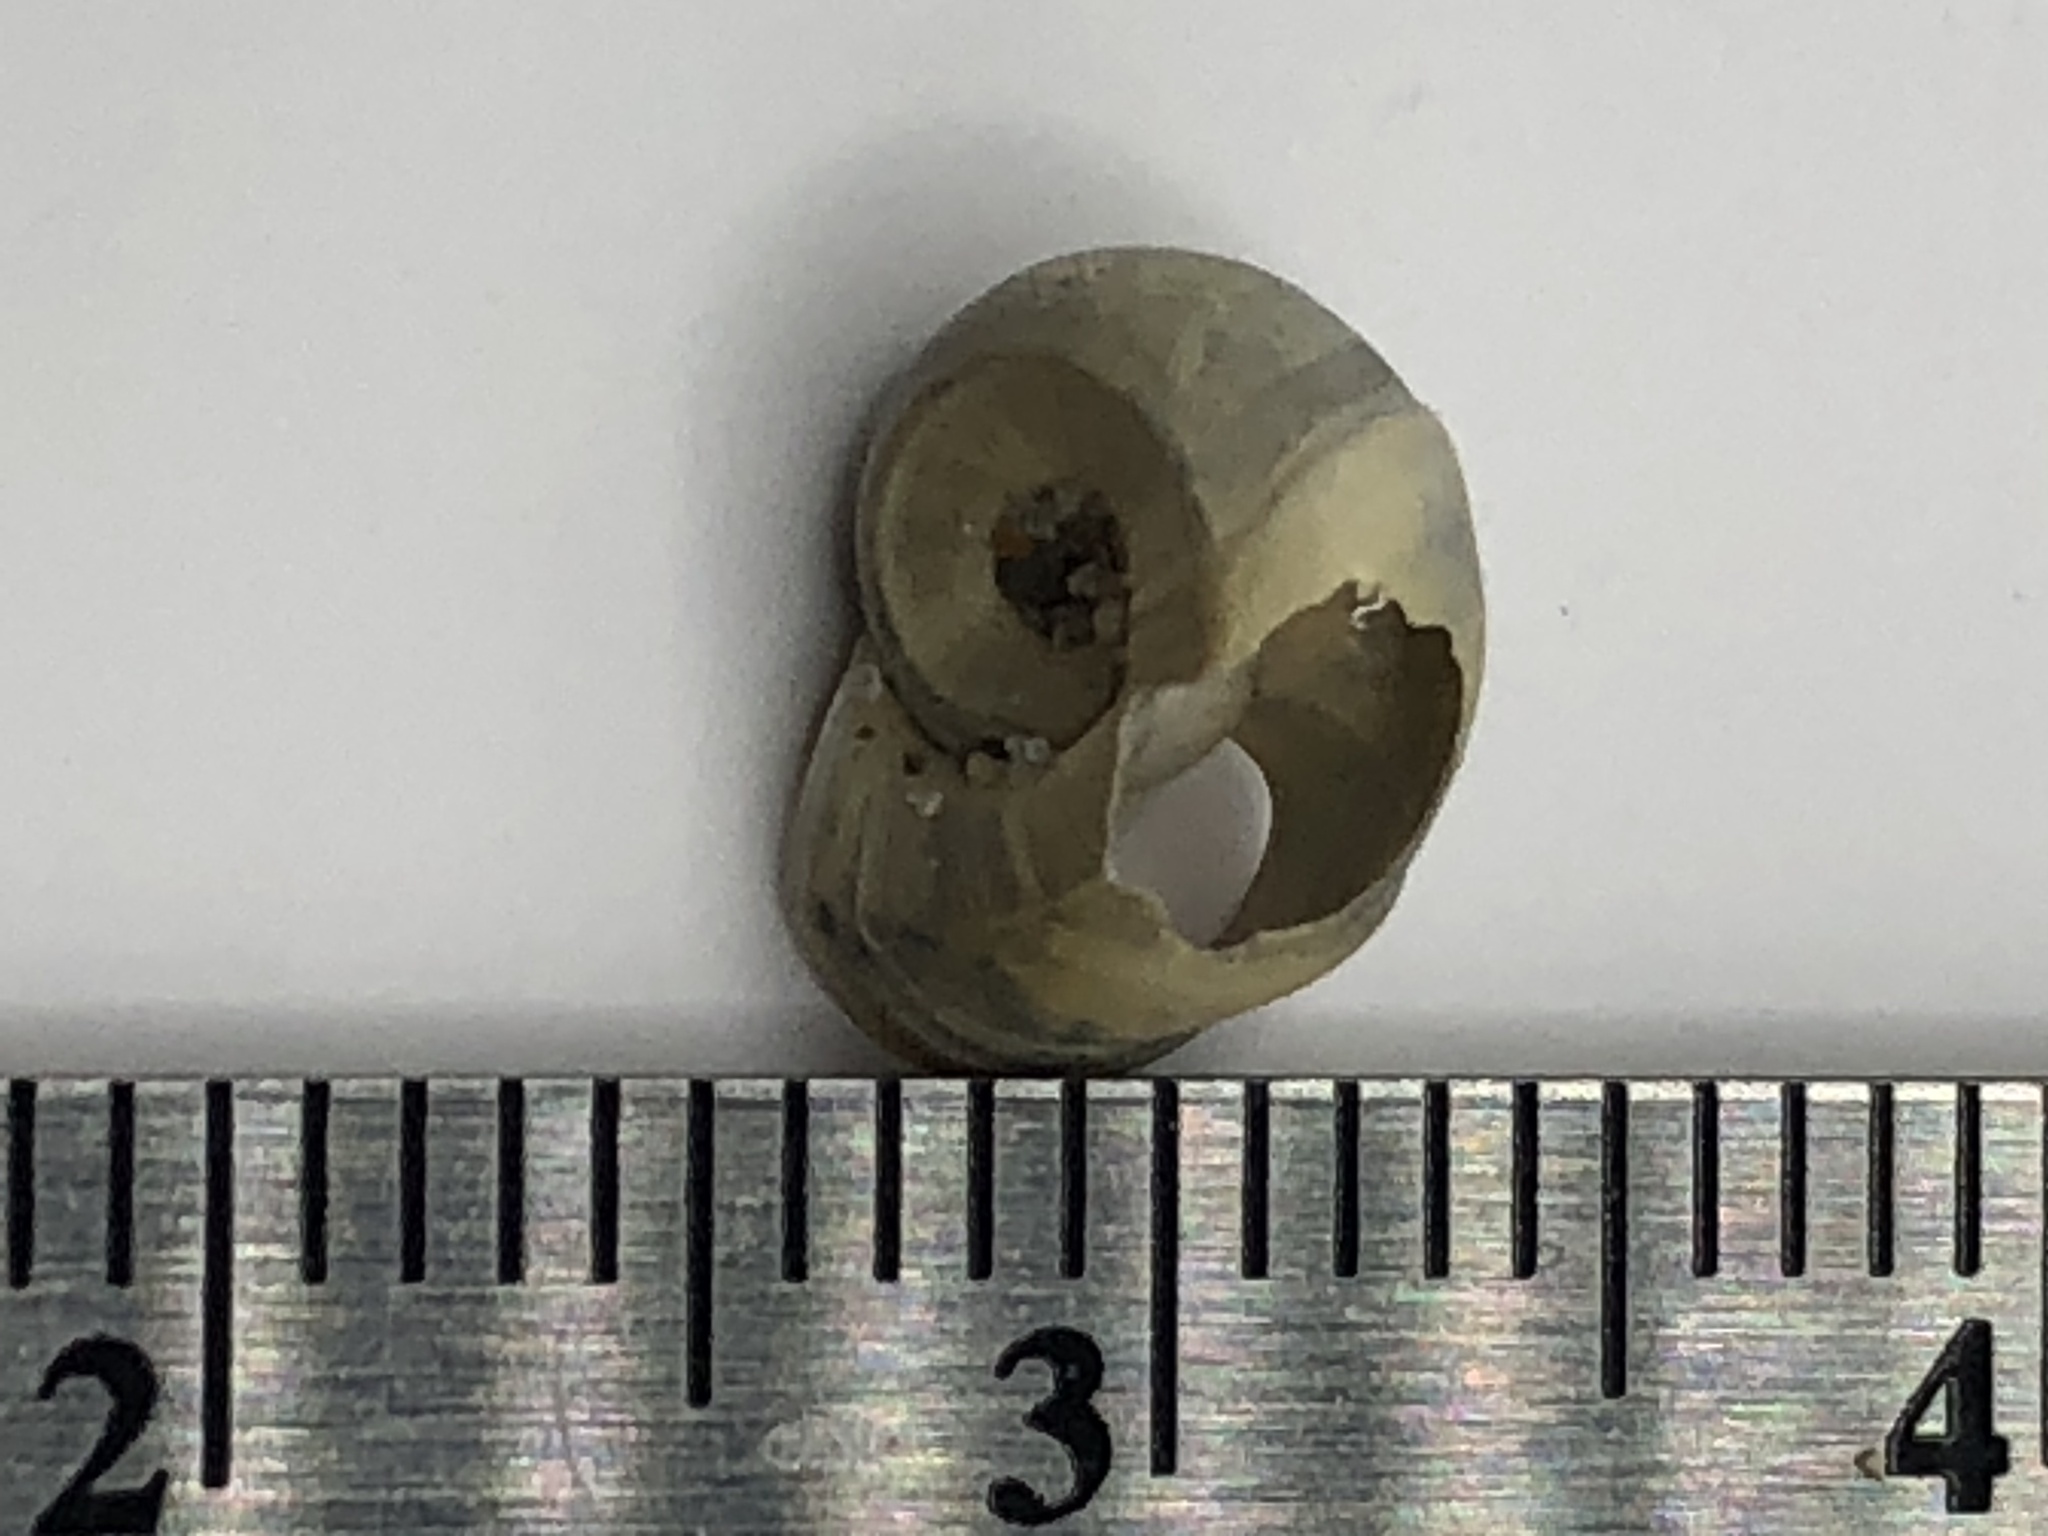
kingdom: Animalia
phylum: Mollusca
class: Gastropoda
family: Planorbidae
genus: Planorbella
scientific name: Planorbella campanulata
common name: Bellmouth ramshorn
